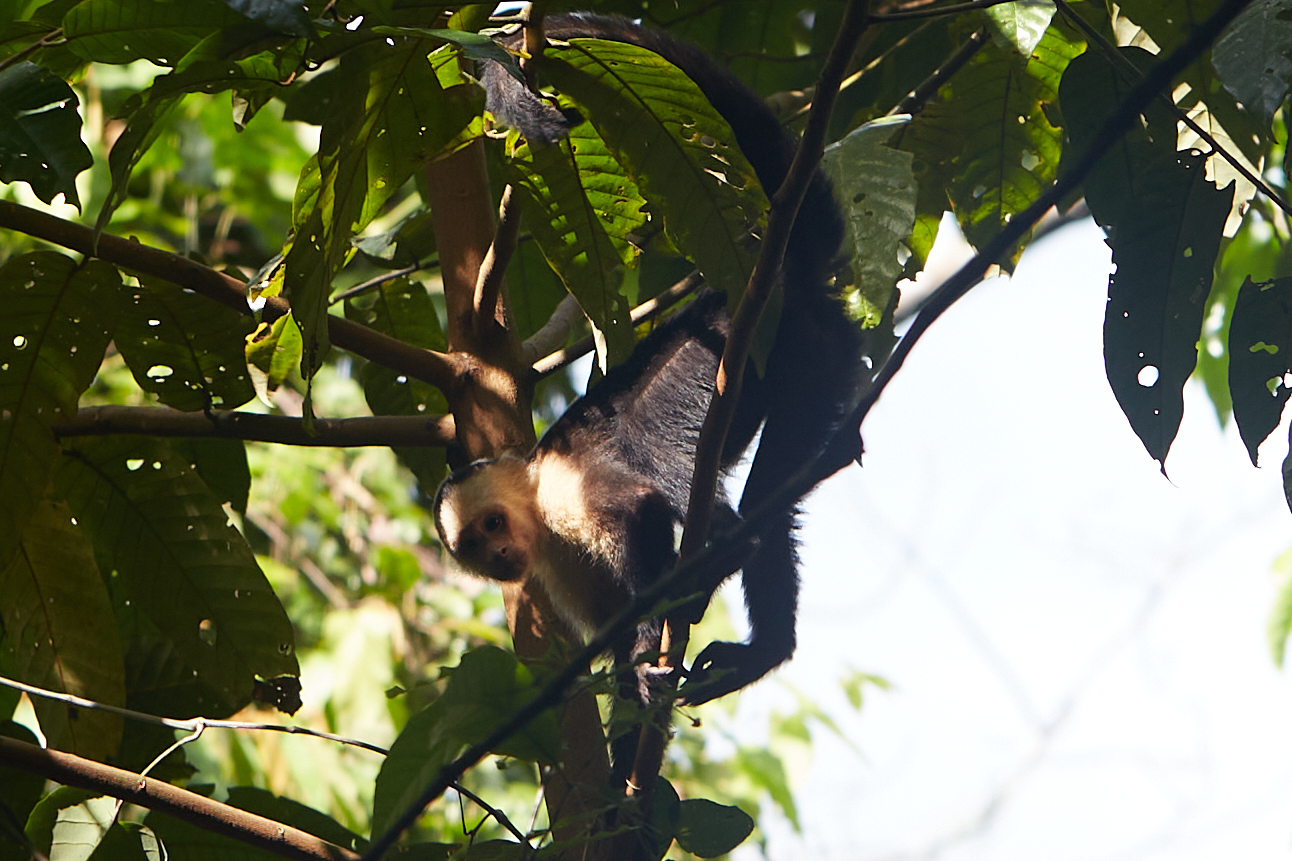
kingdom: Animalia
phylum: Chordata
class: Mammalia
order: Primates
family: Cebidae
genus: Cebus
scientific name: Cebus imitator
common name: Panamanian white-faced capuchin
